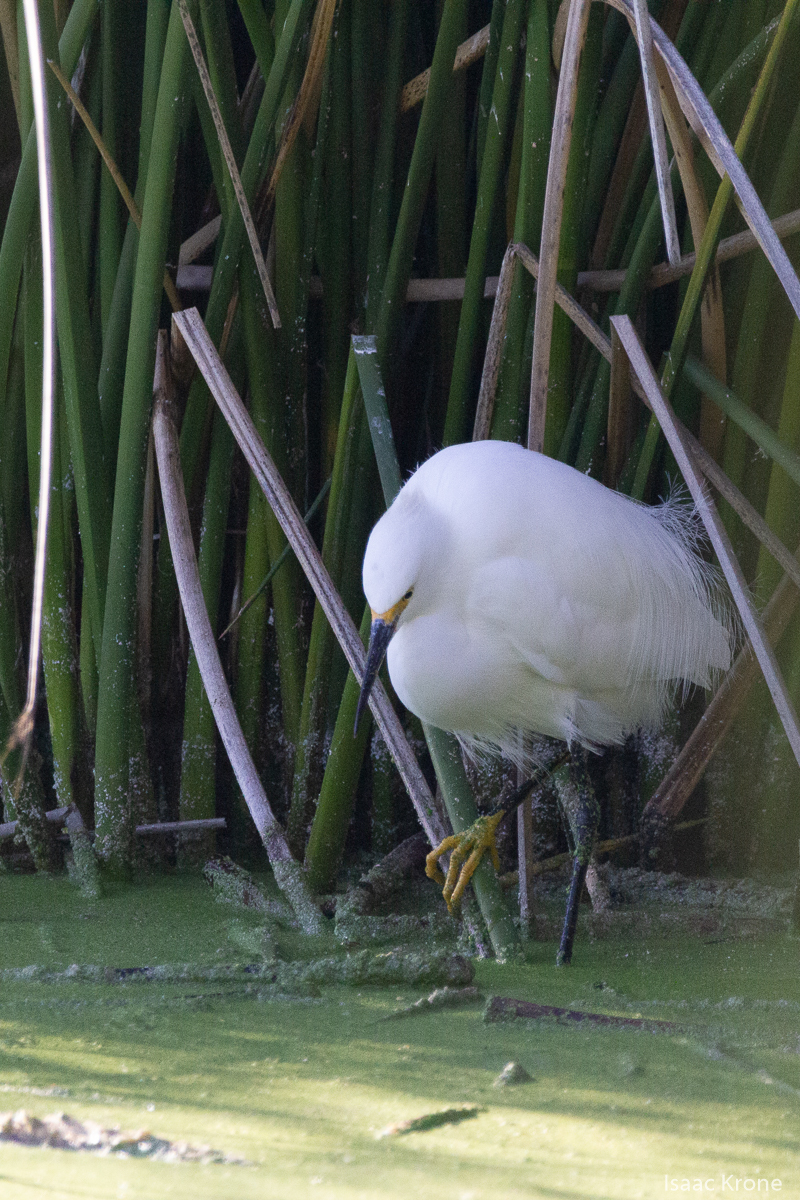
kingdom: Animalia
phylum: Chordata
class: Aves
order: Pelecaniformes
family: Ardeidae
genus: Egretta
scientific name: Egretta thula
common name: Snowy egret
